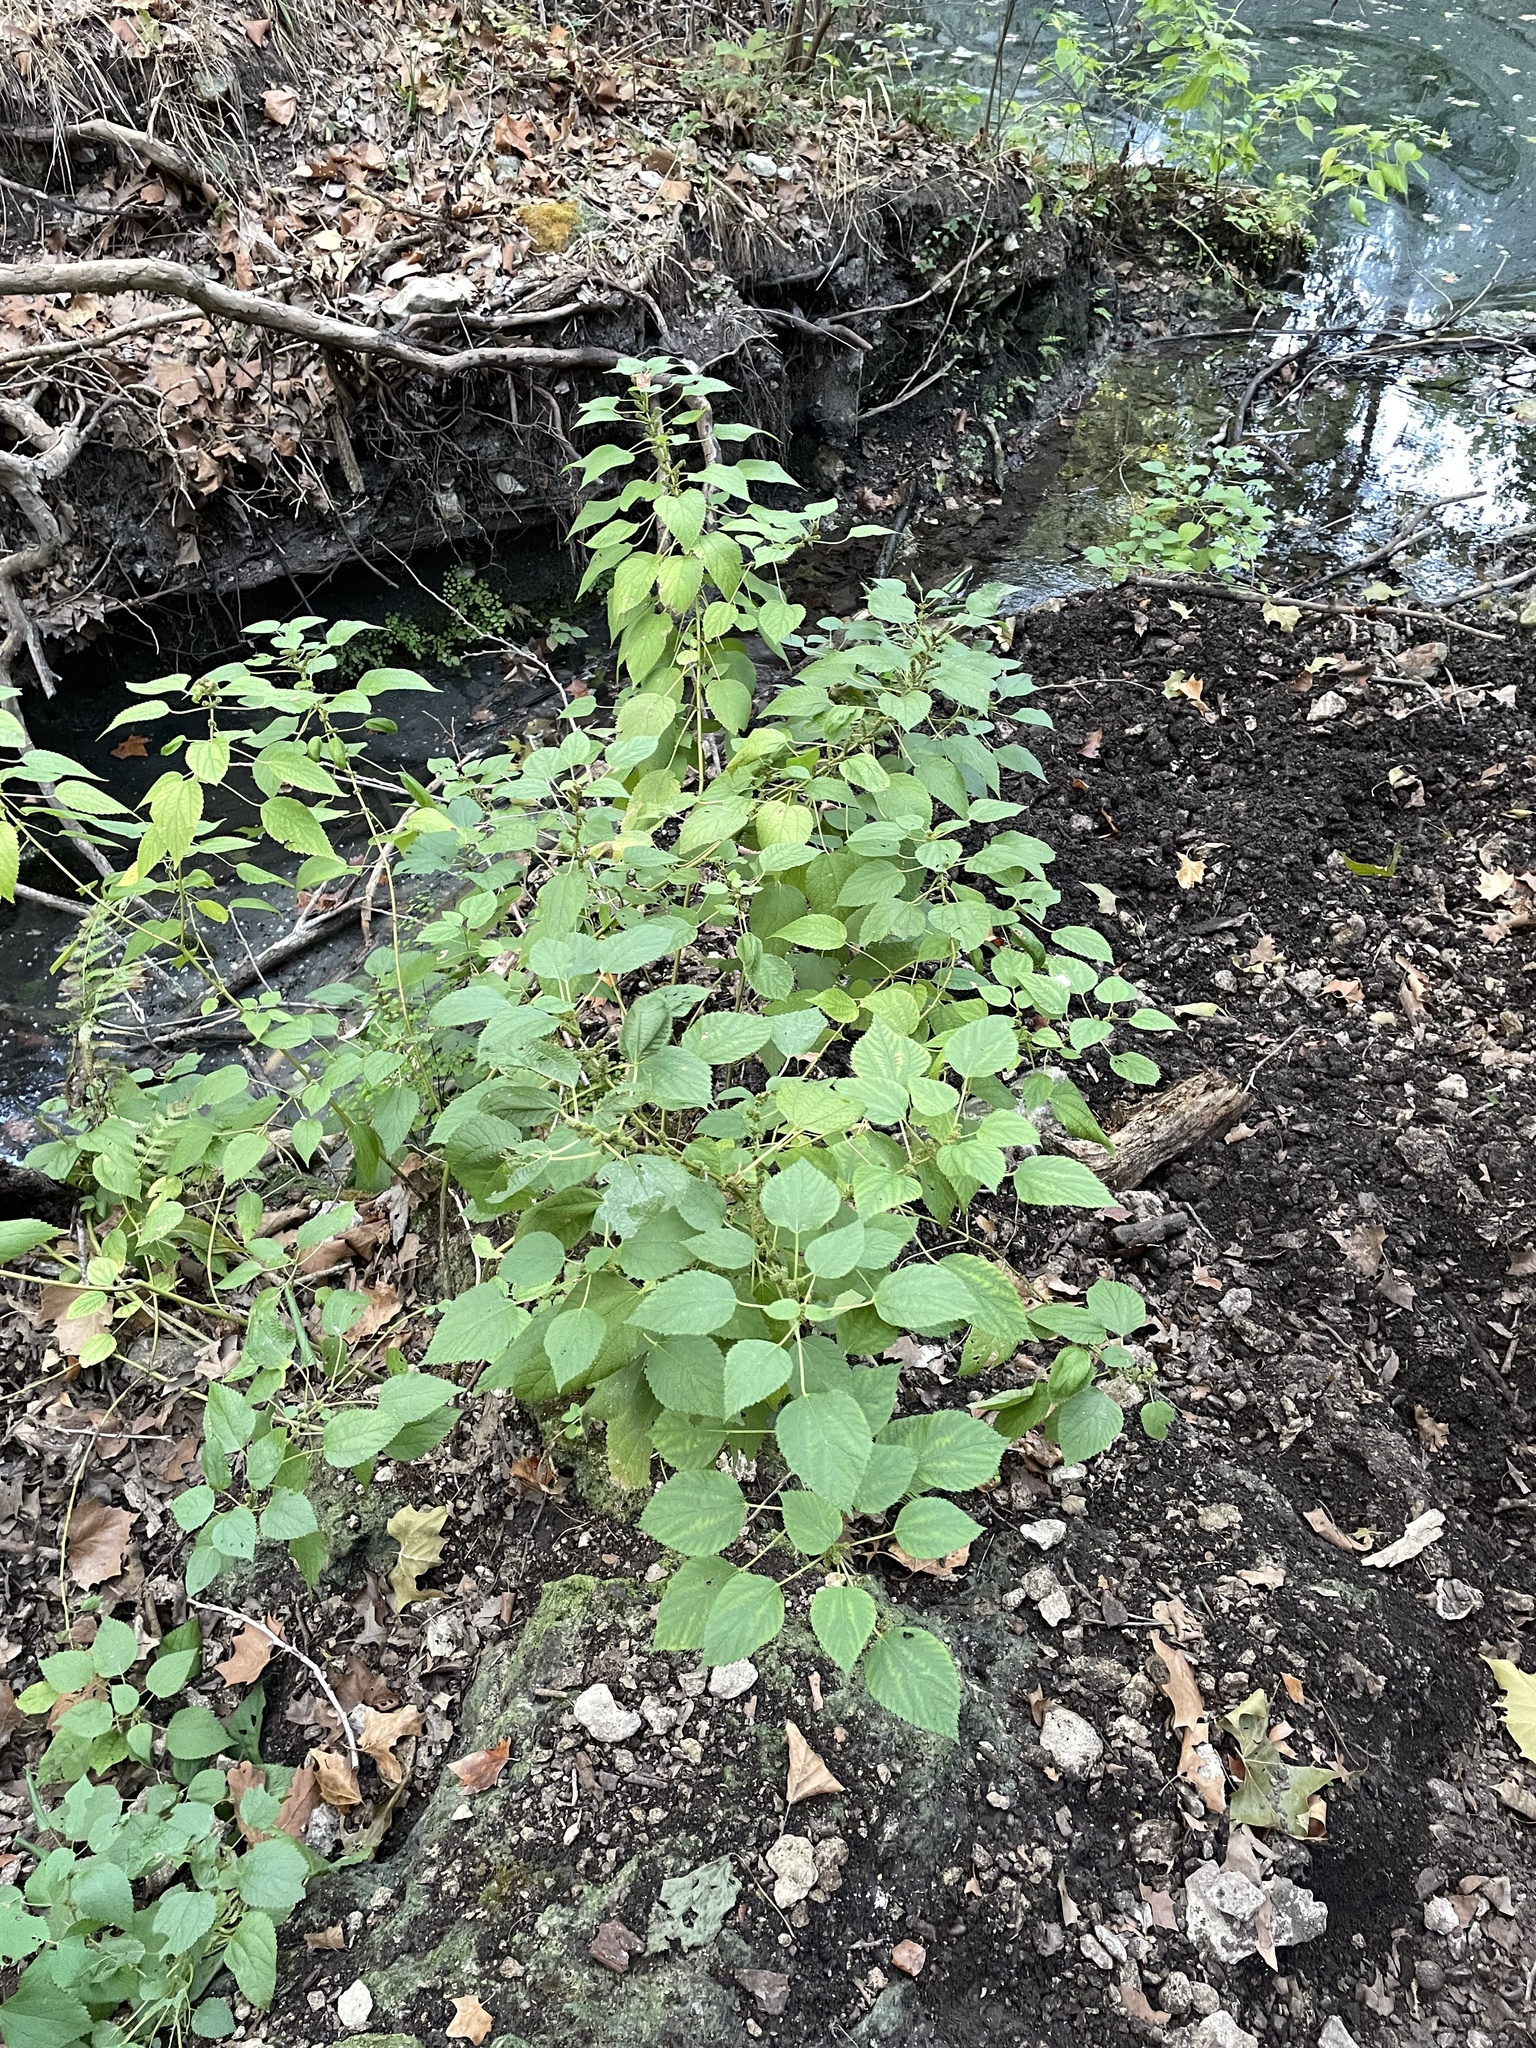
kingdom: Plantae
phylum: Tracheophyta
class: Magnoliopsida
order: Rosales
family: Urticaceae
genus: Boehmeria
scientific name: Boehmeria cylindrica
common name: Bog-hemp
